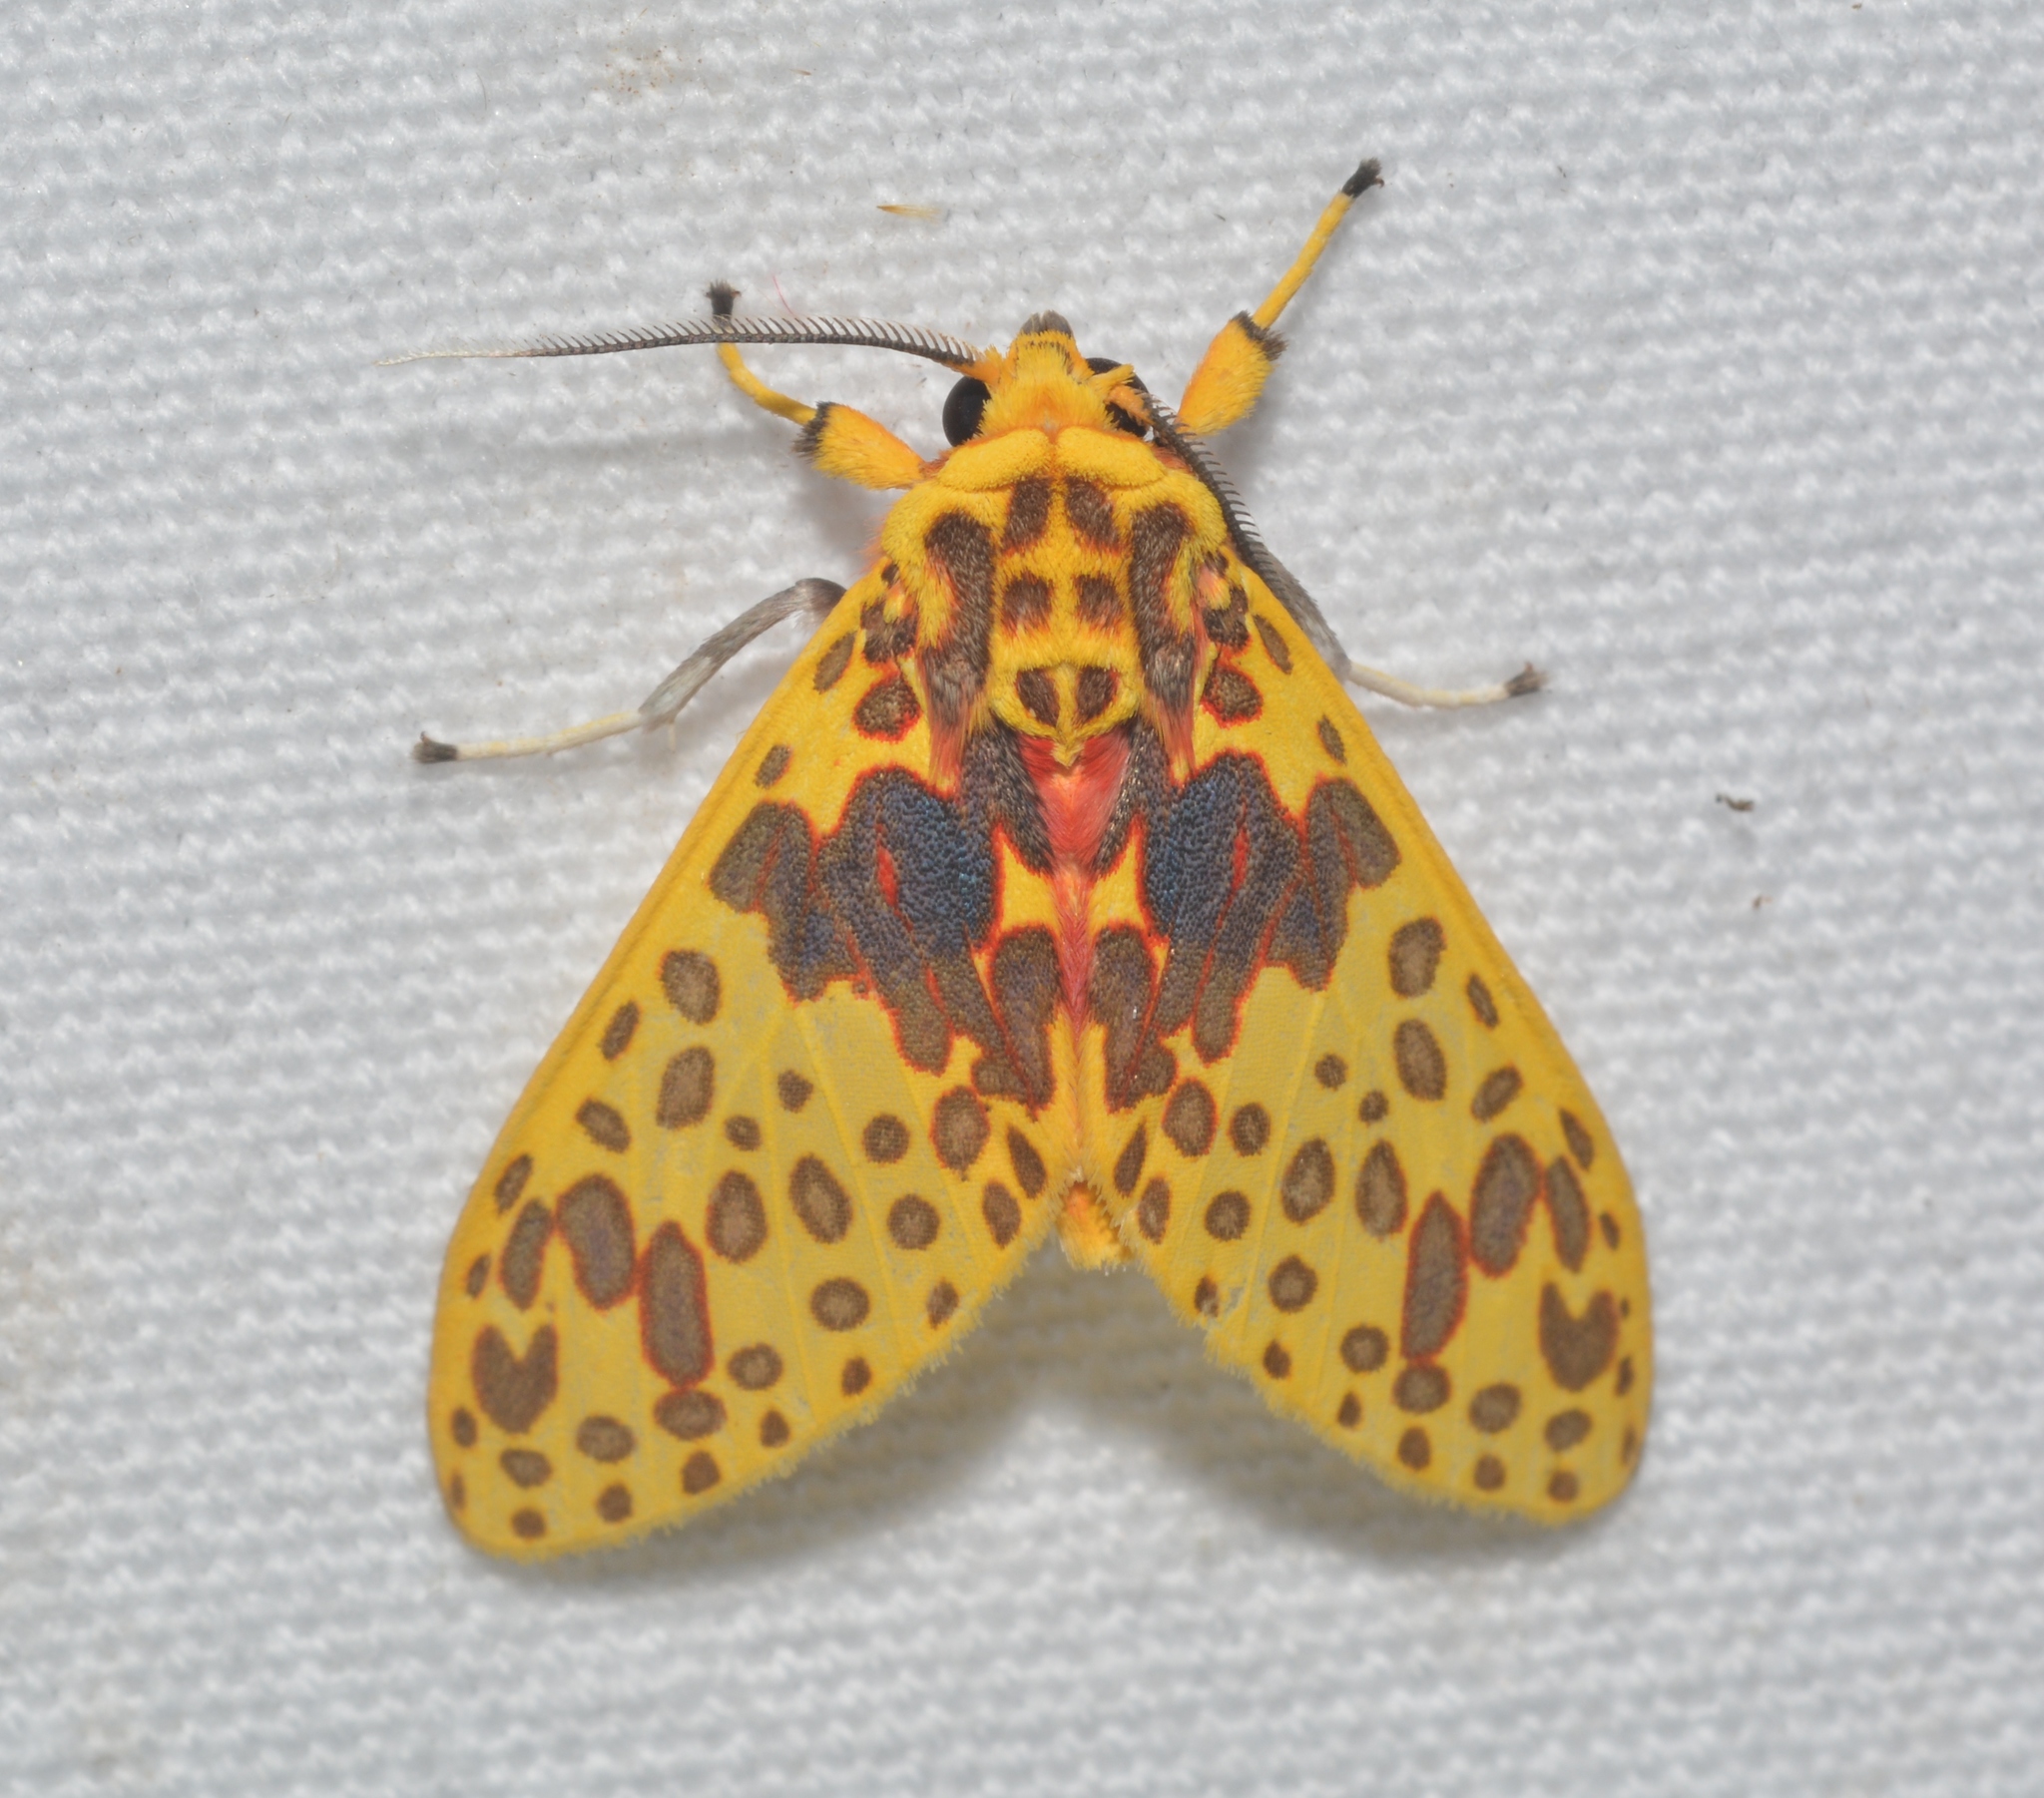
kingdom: Animalia
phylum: Arthropoda
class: Insecta
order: Lepidoptera
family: Erebidae
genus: Amaxia
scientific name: Amaxia
